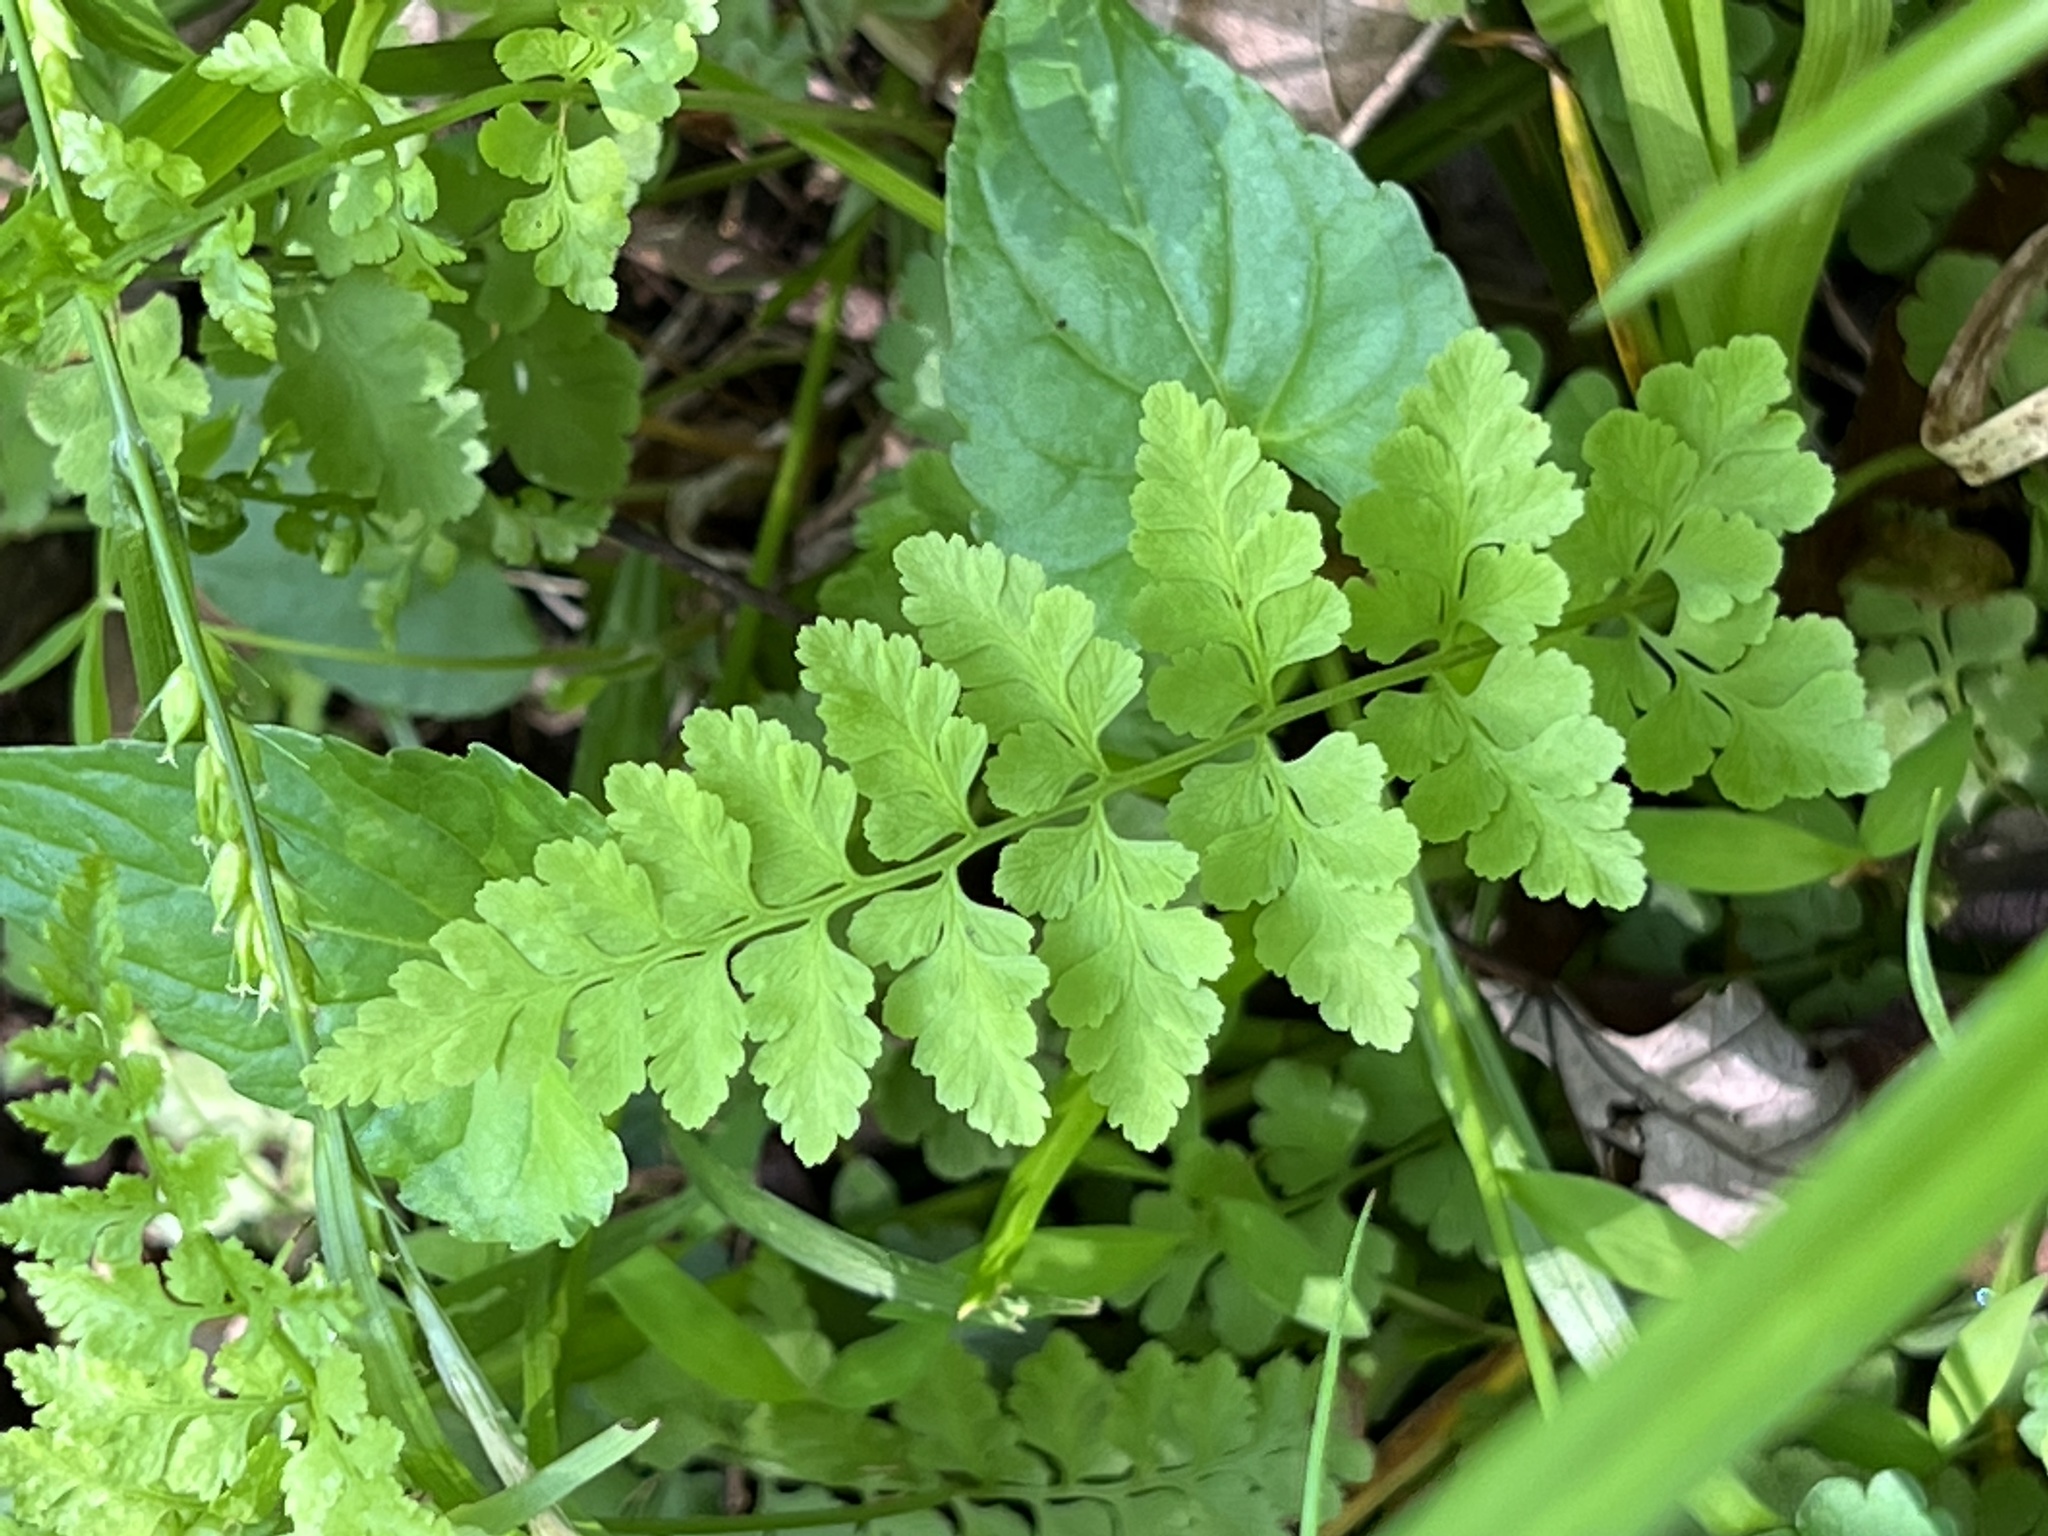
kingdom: Plantae
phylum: Tracheophyta
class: Polypodiopsida
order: Polypodiales
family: Cystopteridaceae
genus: Cystopteris
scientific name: Cystopteris protrusa
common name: Lowland brittle fern
